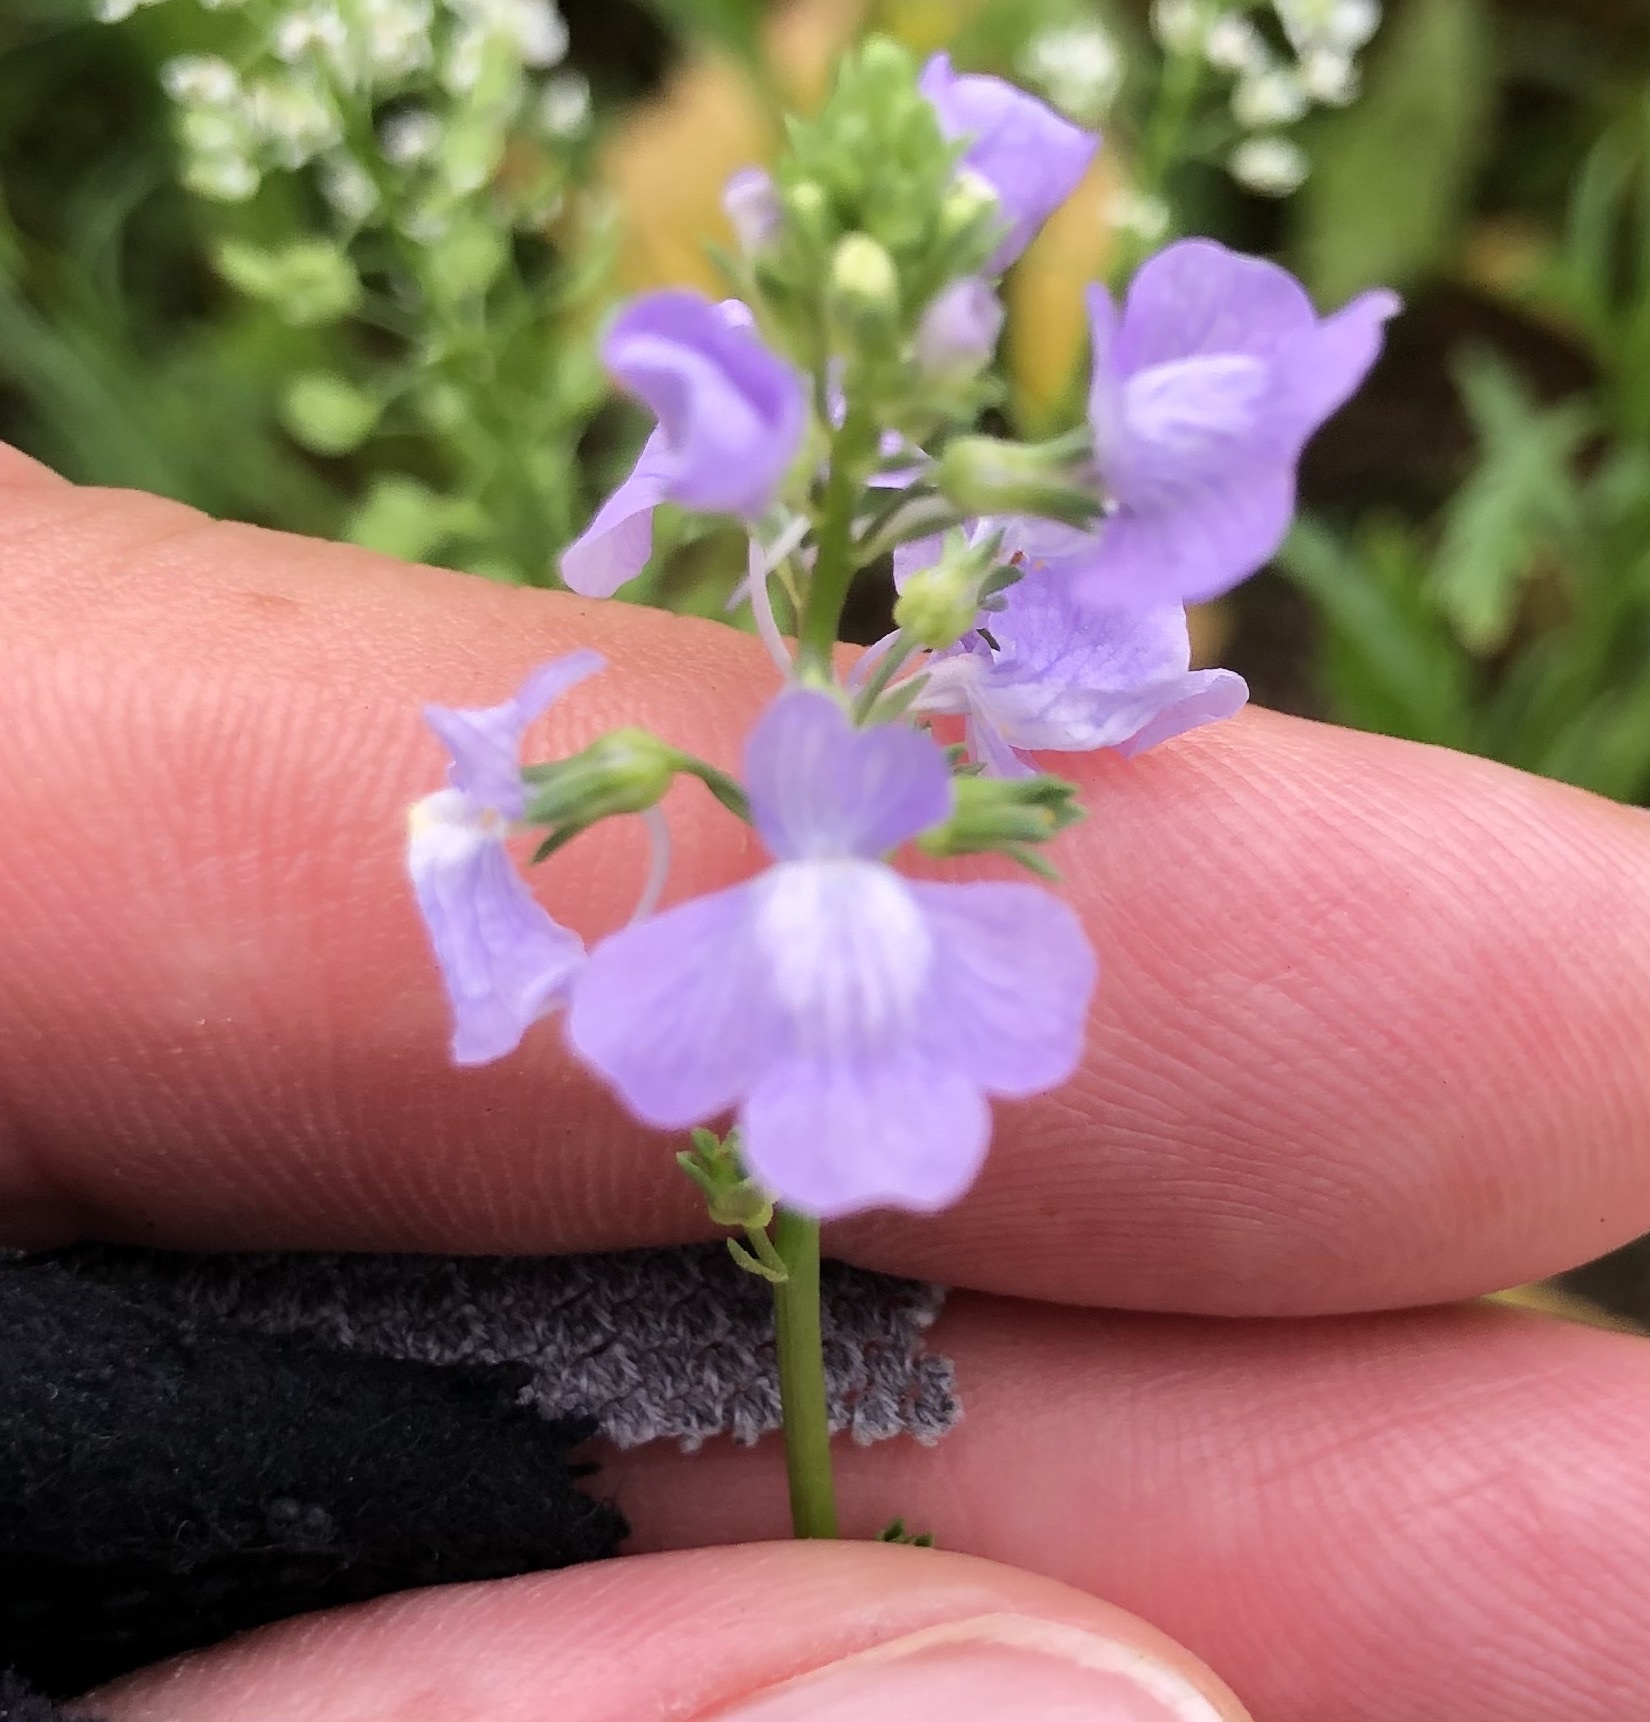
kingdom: Plantae
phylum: Tracheophyta
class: Magnoliopsida
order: Lamiales
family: Plantaginaceae
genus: Nuttallanthus
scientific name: Nuttallanthus texanus
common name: Texas toadflax
